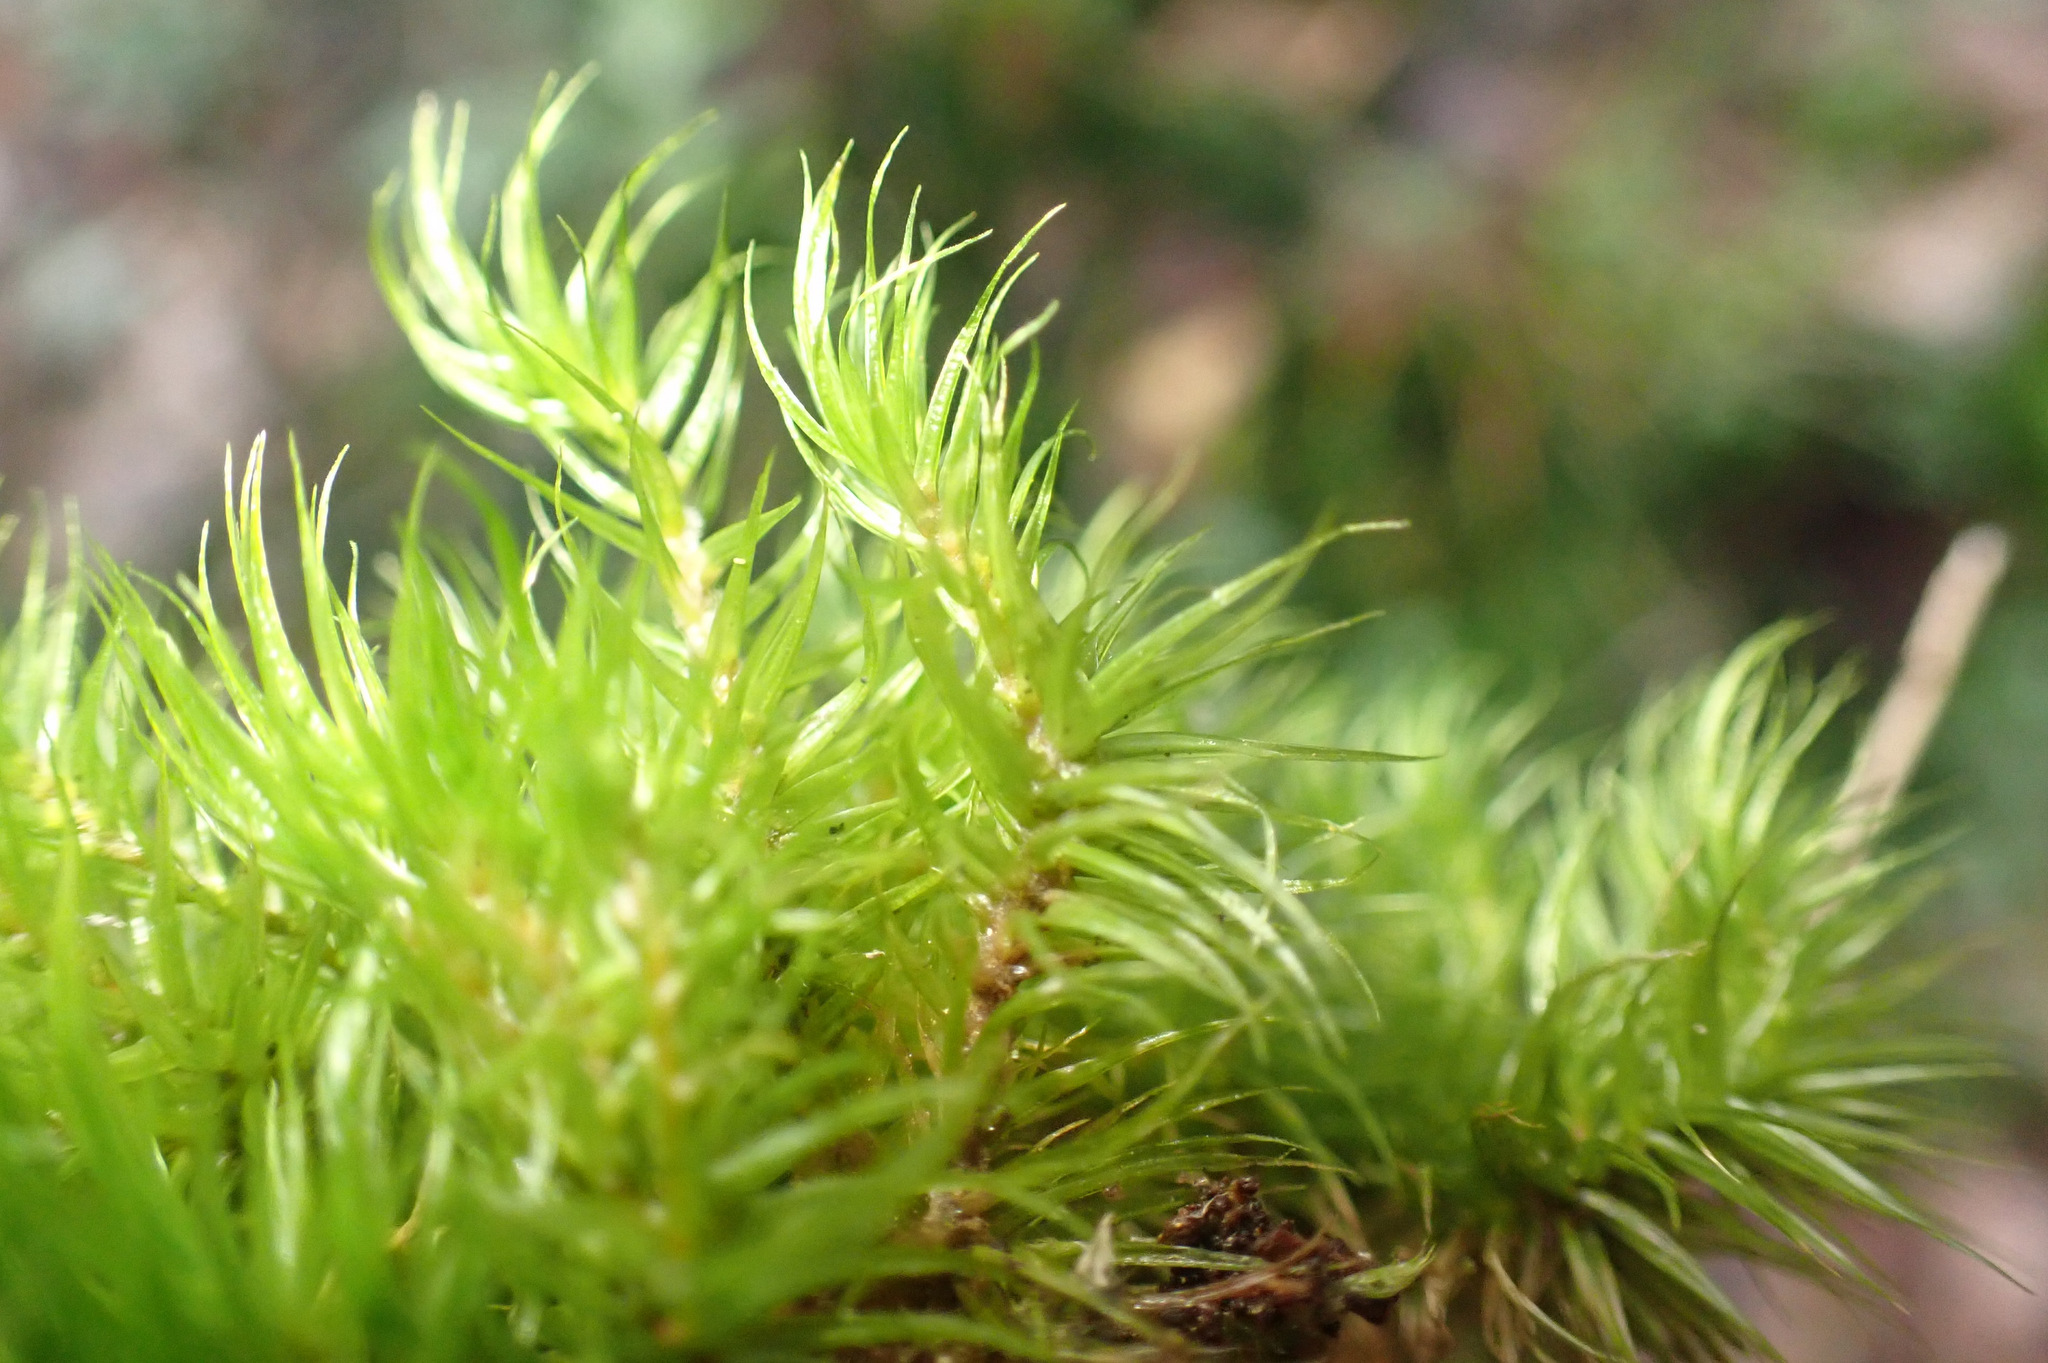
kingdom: Plantae
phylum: Bryophyta
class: Bryopsida
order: Dicranales
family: Dicranaceae
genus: Dicranum
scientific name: Dicranum scoparium
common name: Broom fork-moss
